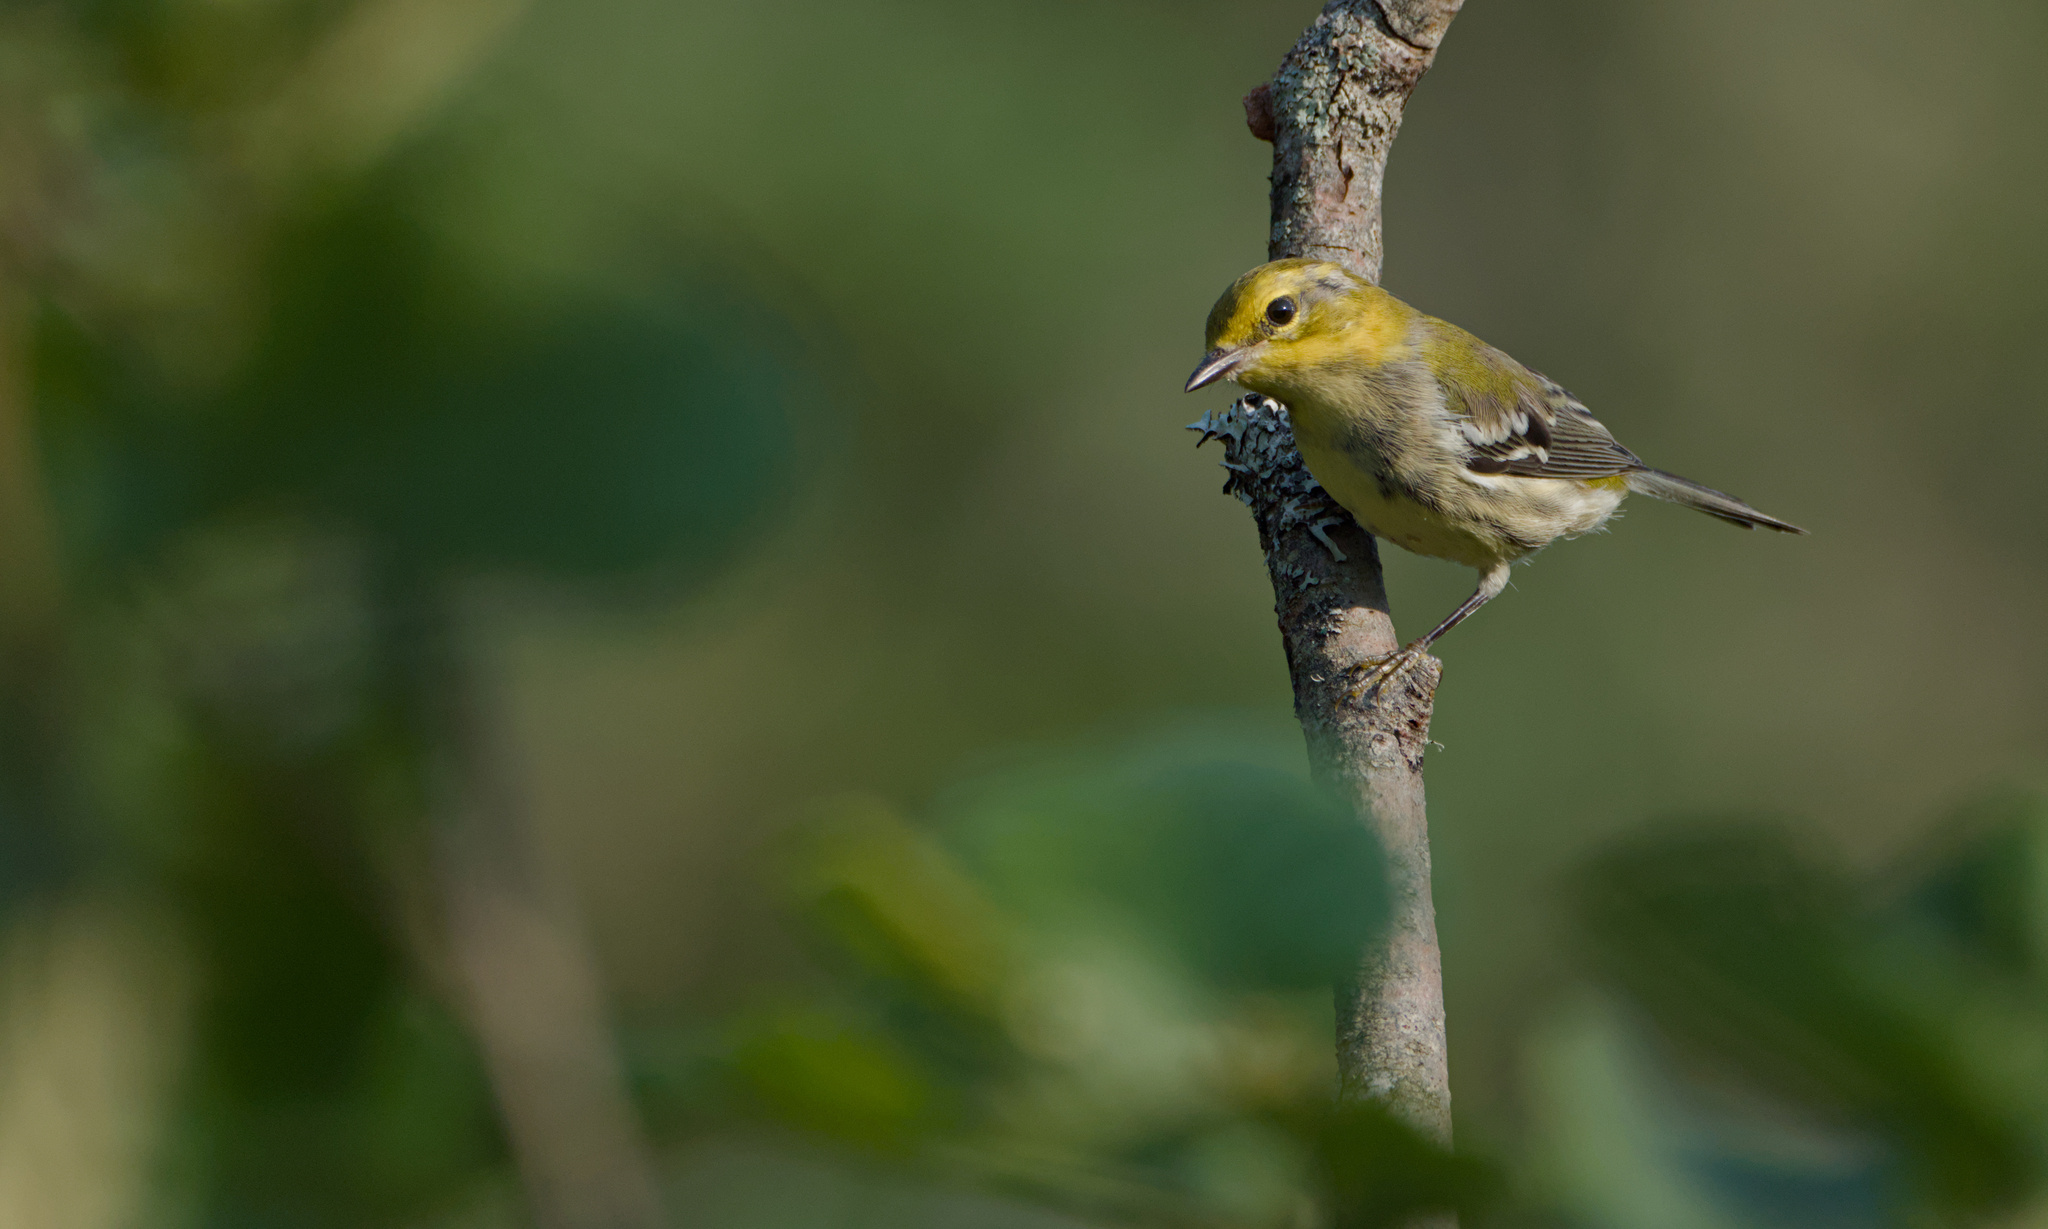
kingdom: Animalia
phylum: Chordata
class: Aves
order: Passeriformes
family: Parulidae
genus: Setophaga
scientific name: Setophaga virens
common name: Black-throated green warbler
